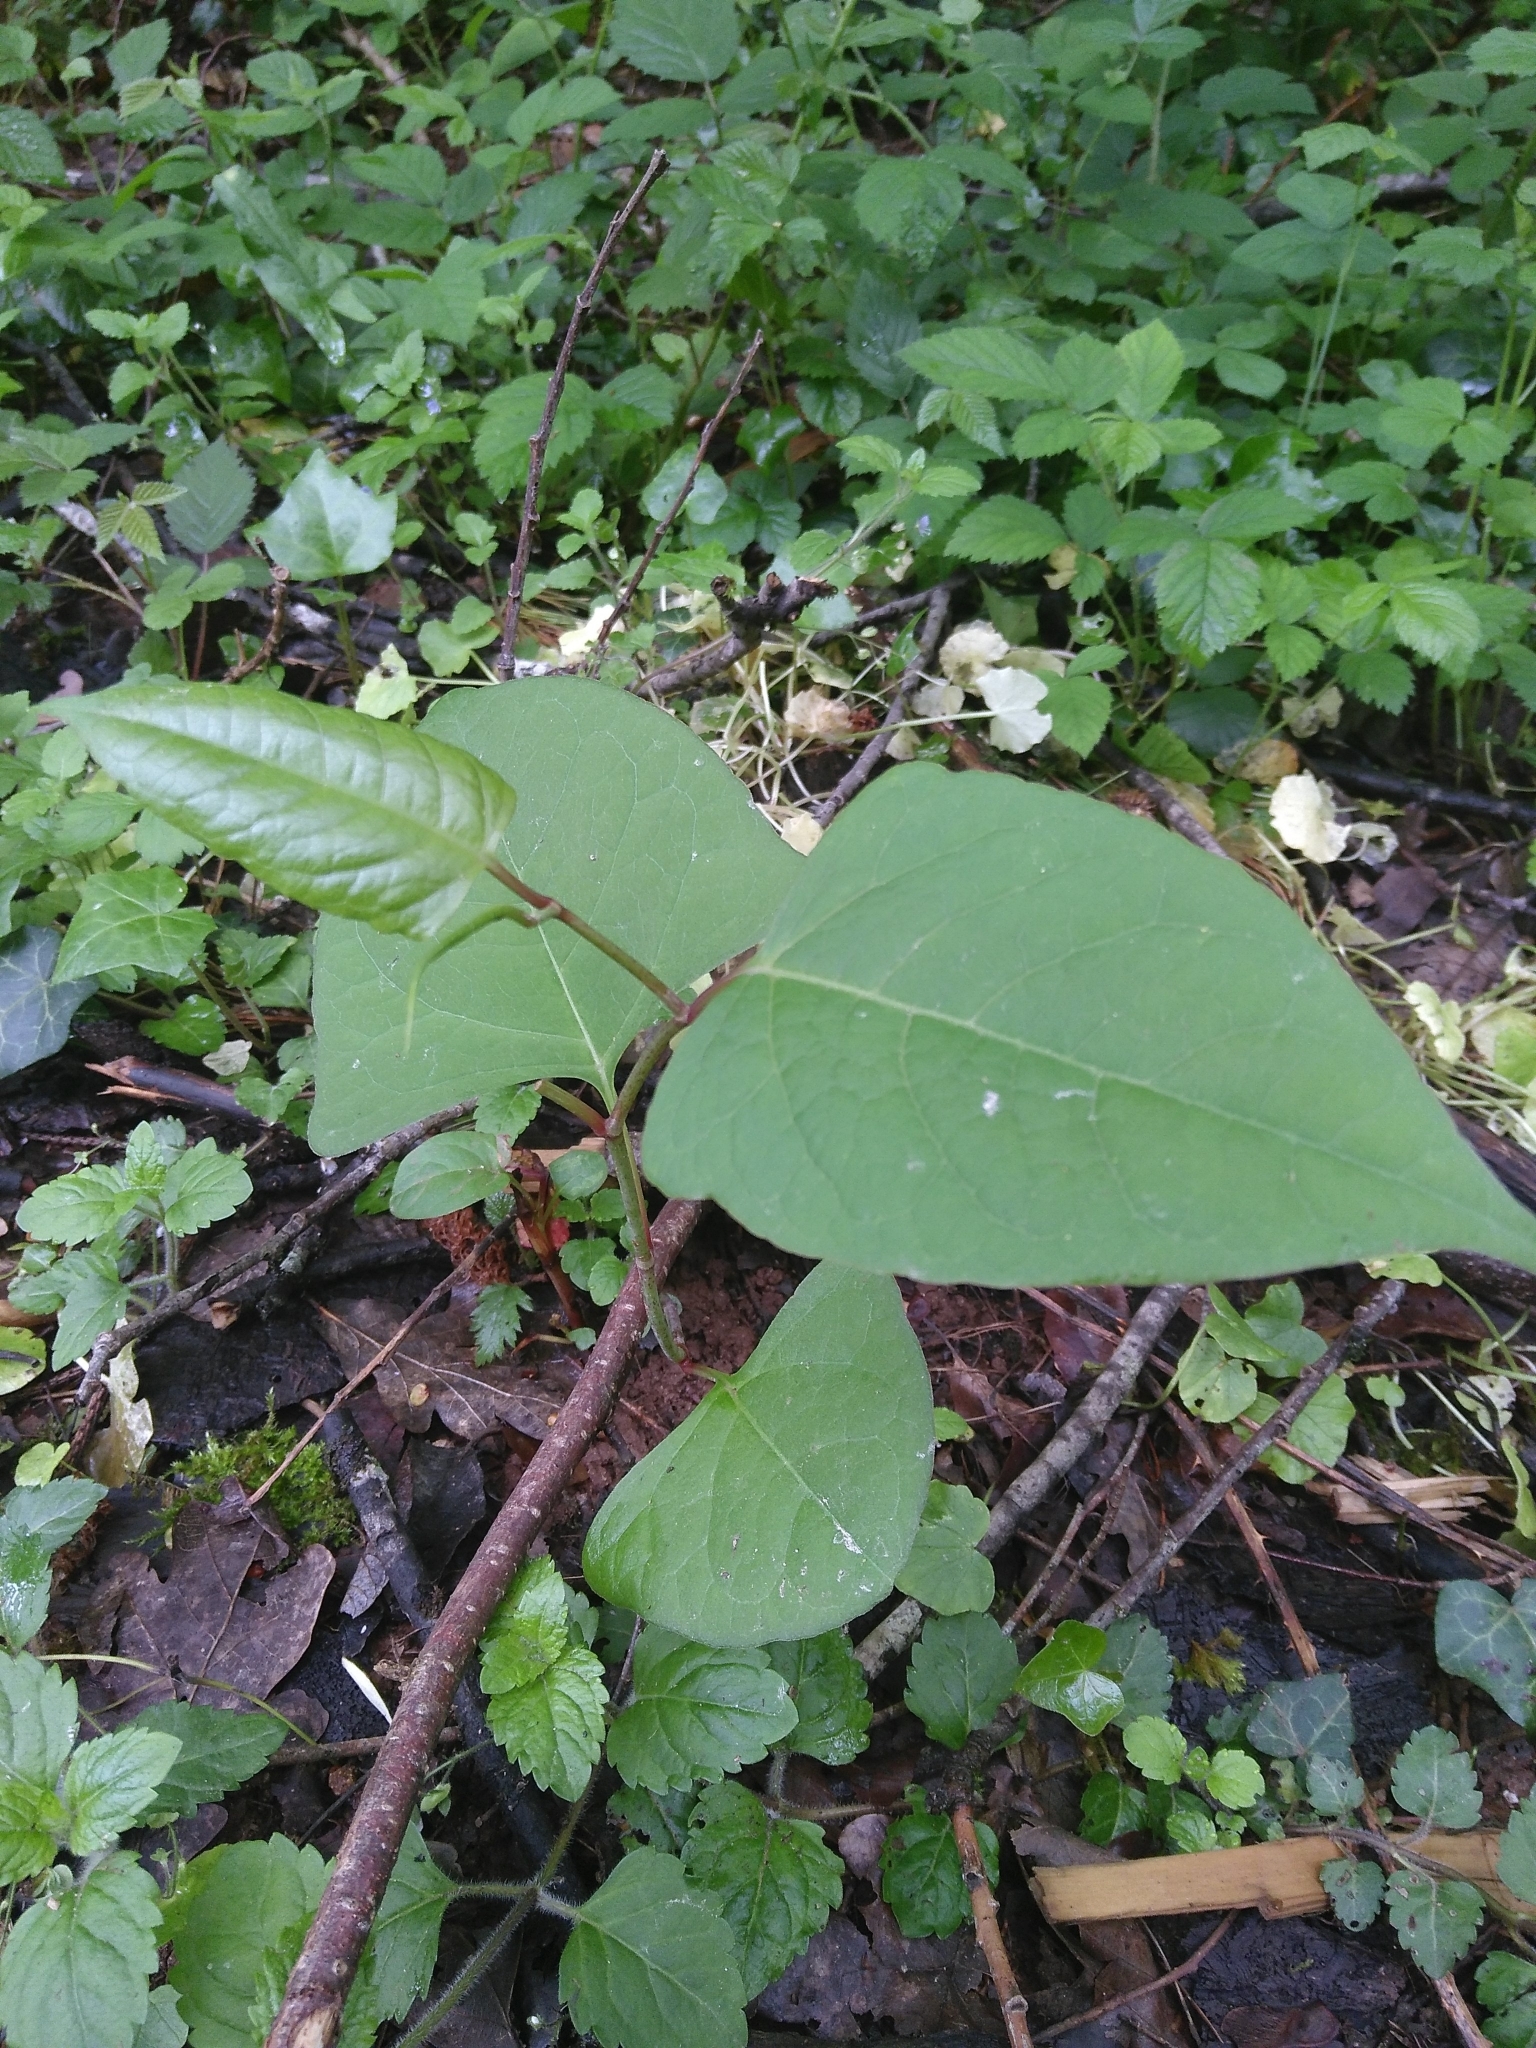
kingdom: Plantae
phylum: Tracheophyta
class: Magnoliopsida
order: Caryophyllales
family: Polygonaceae
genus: Reynoutria
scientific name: Reynoutria japonica
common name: Japanese knotweed
